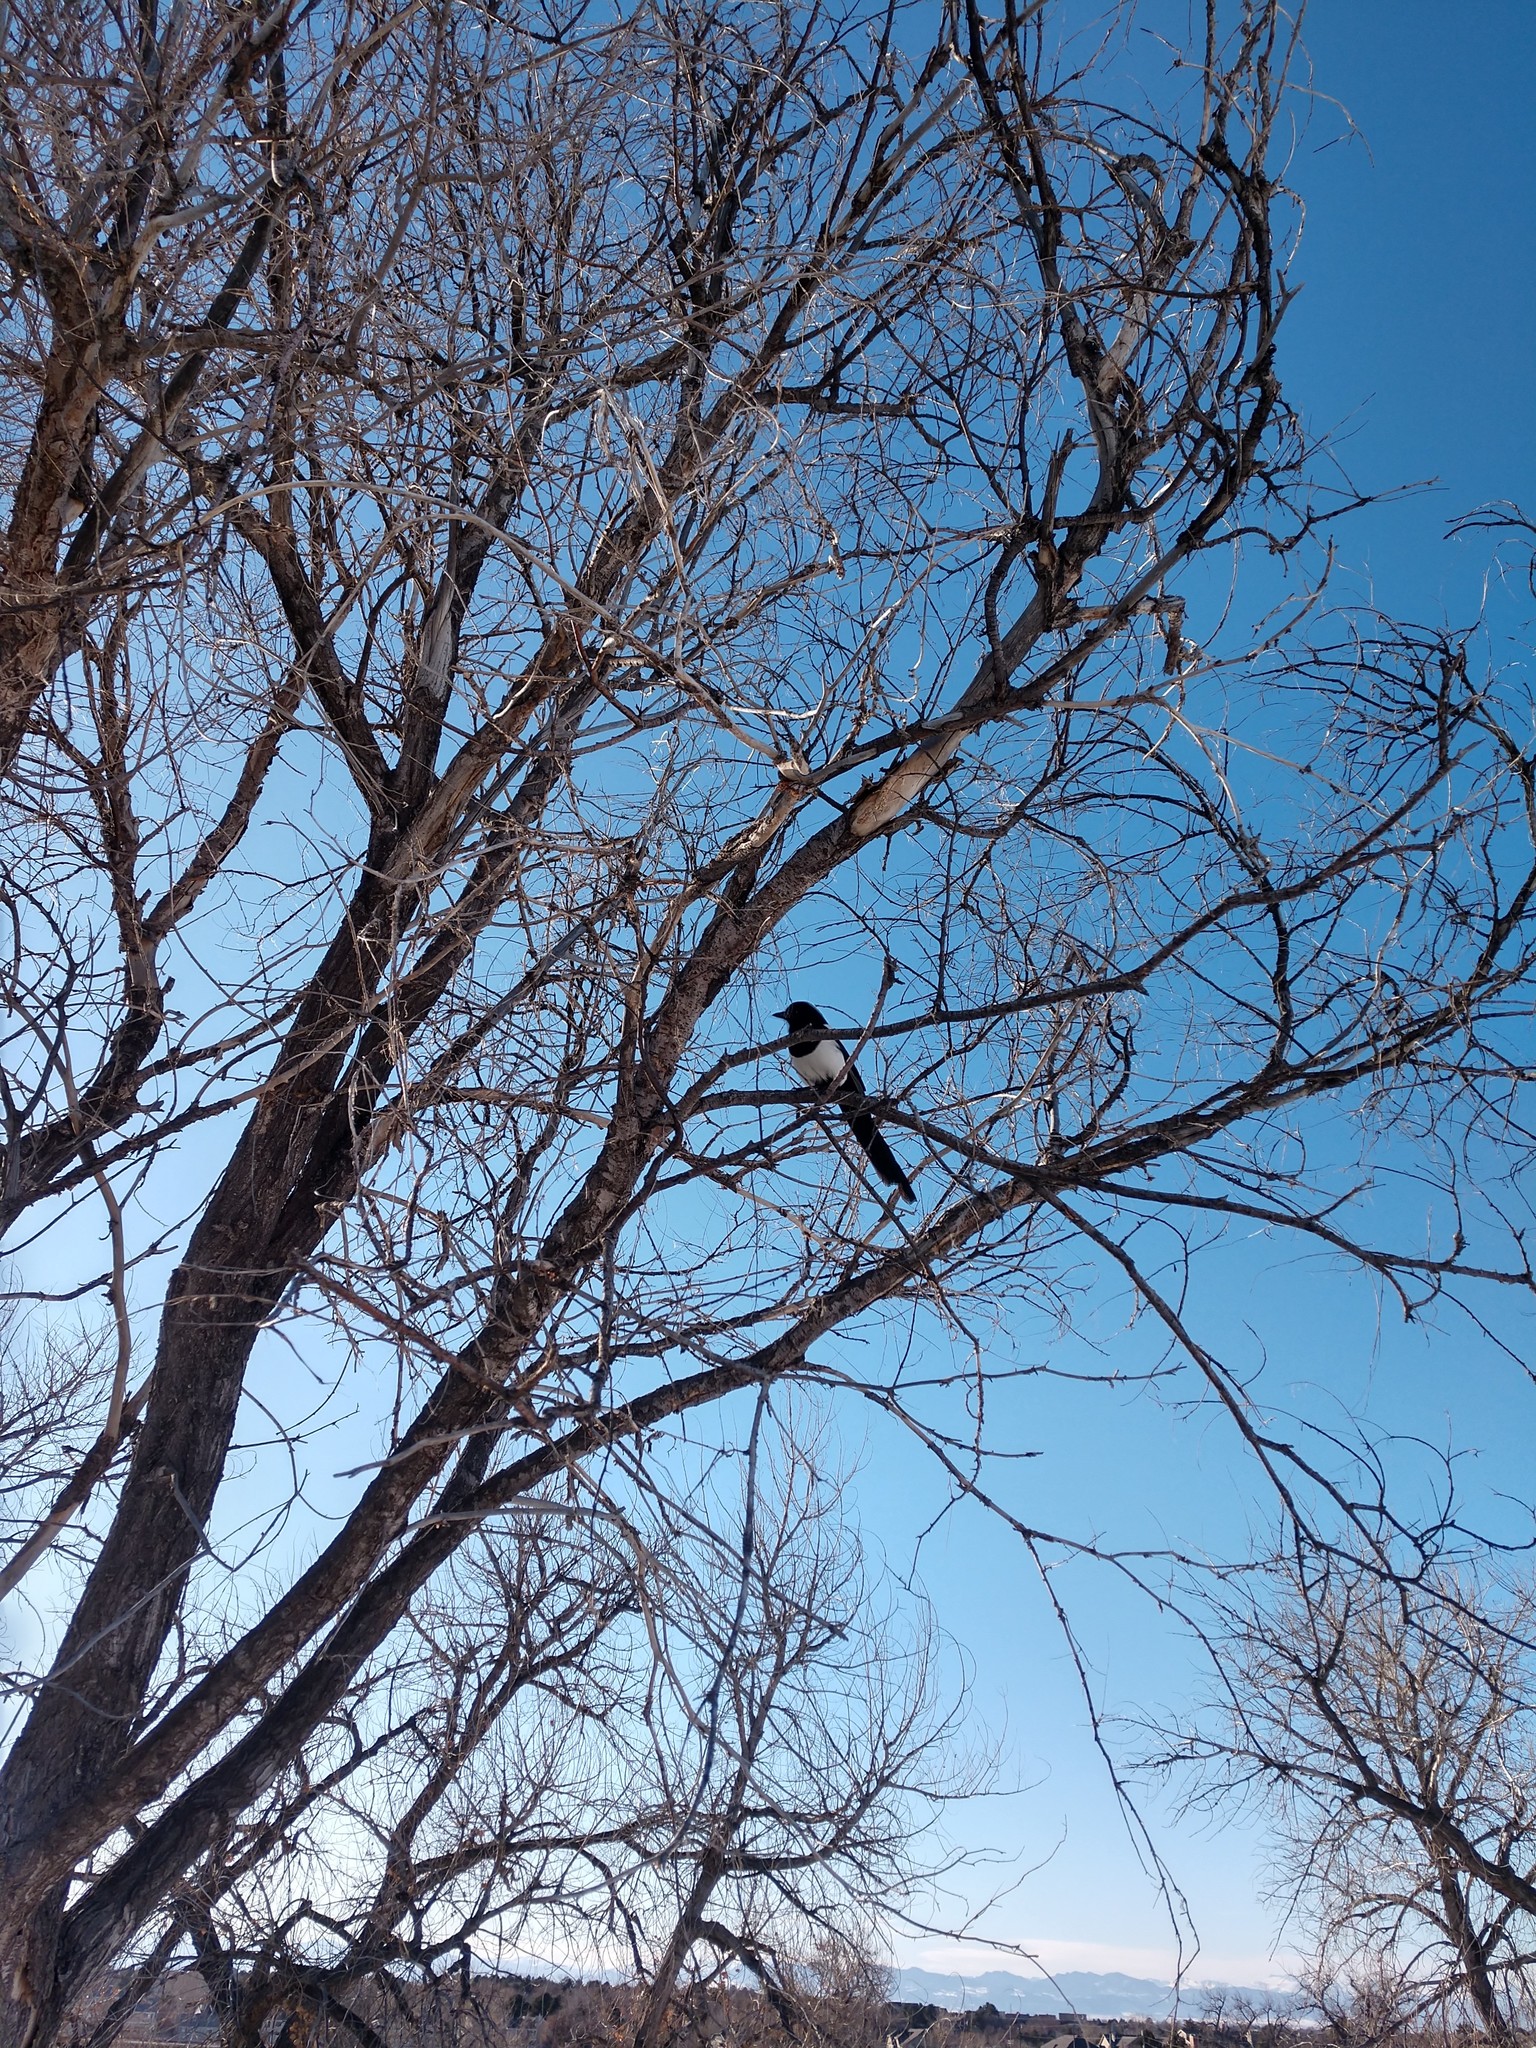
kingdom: Animalia
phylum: Chordata
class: Aves
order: Passeriformes
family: Corvidae
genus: Pica
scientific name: Pica hudsonia
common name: Black-billed magpie
